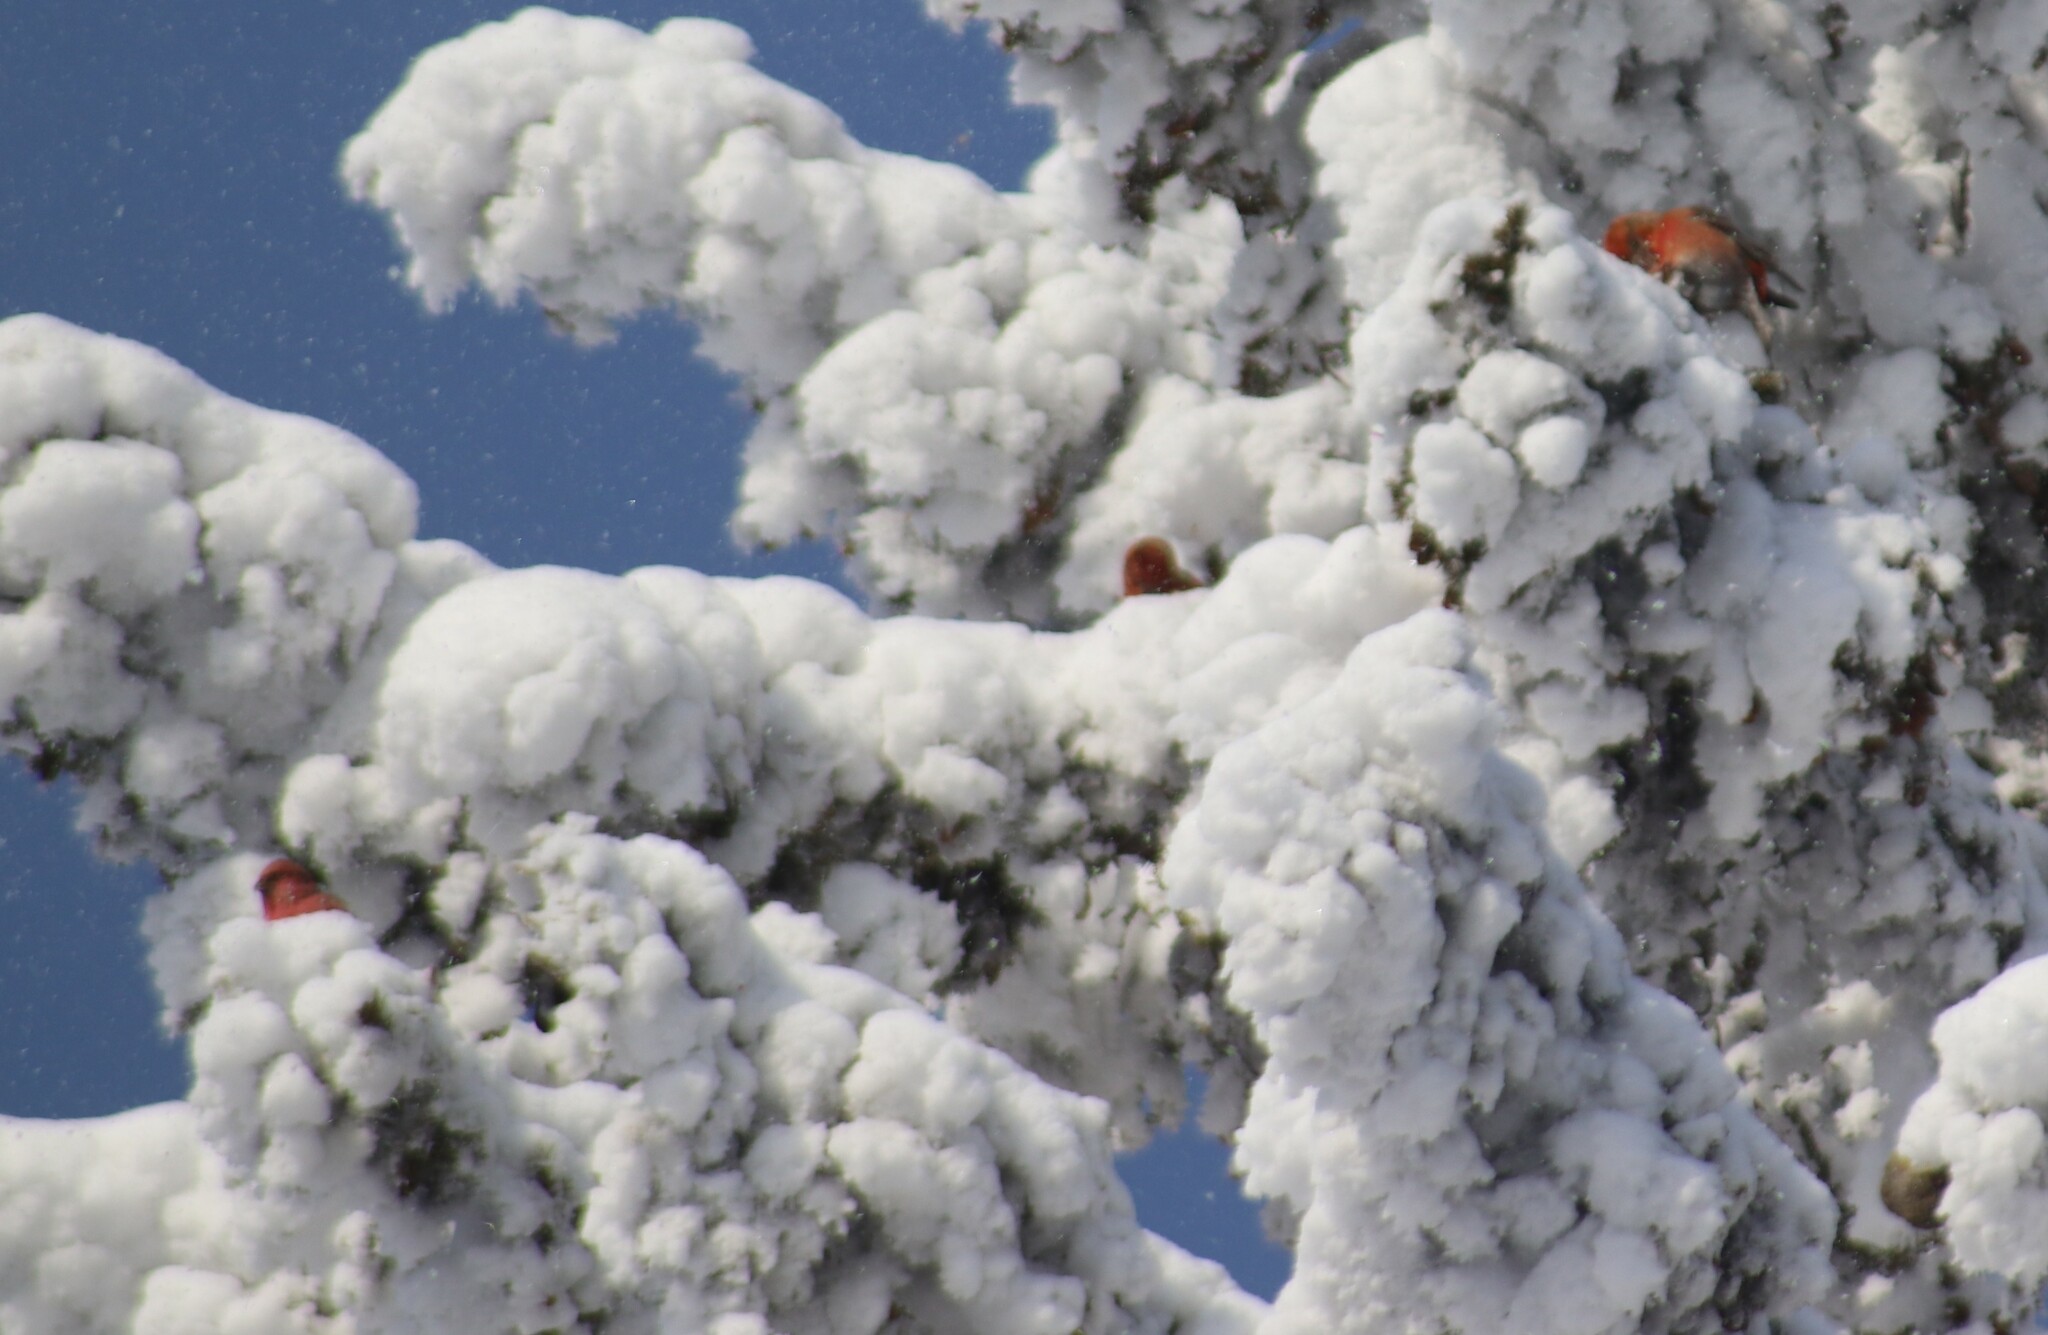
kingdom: Animalia
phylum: Chordata
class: Aves
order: Passeriformes
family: Fringillidae
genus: Loxia
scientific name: Loxia curvirostra
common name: Red crossbill
